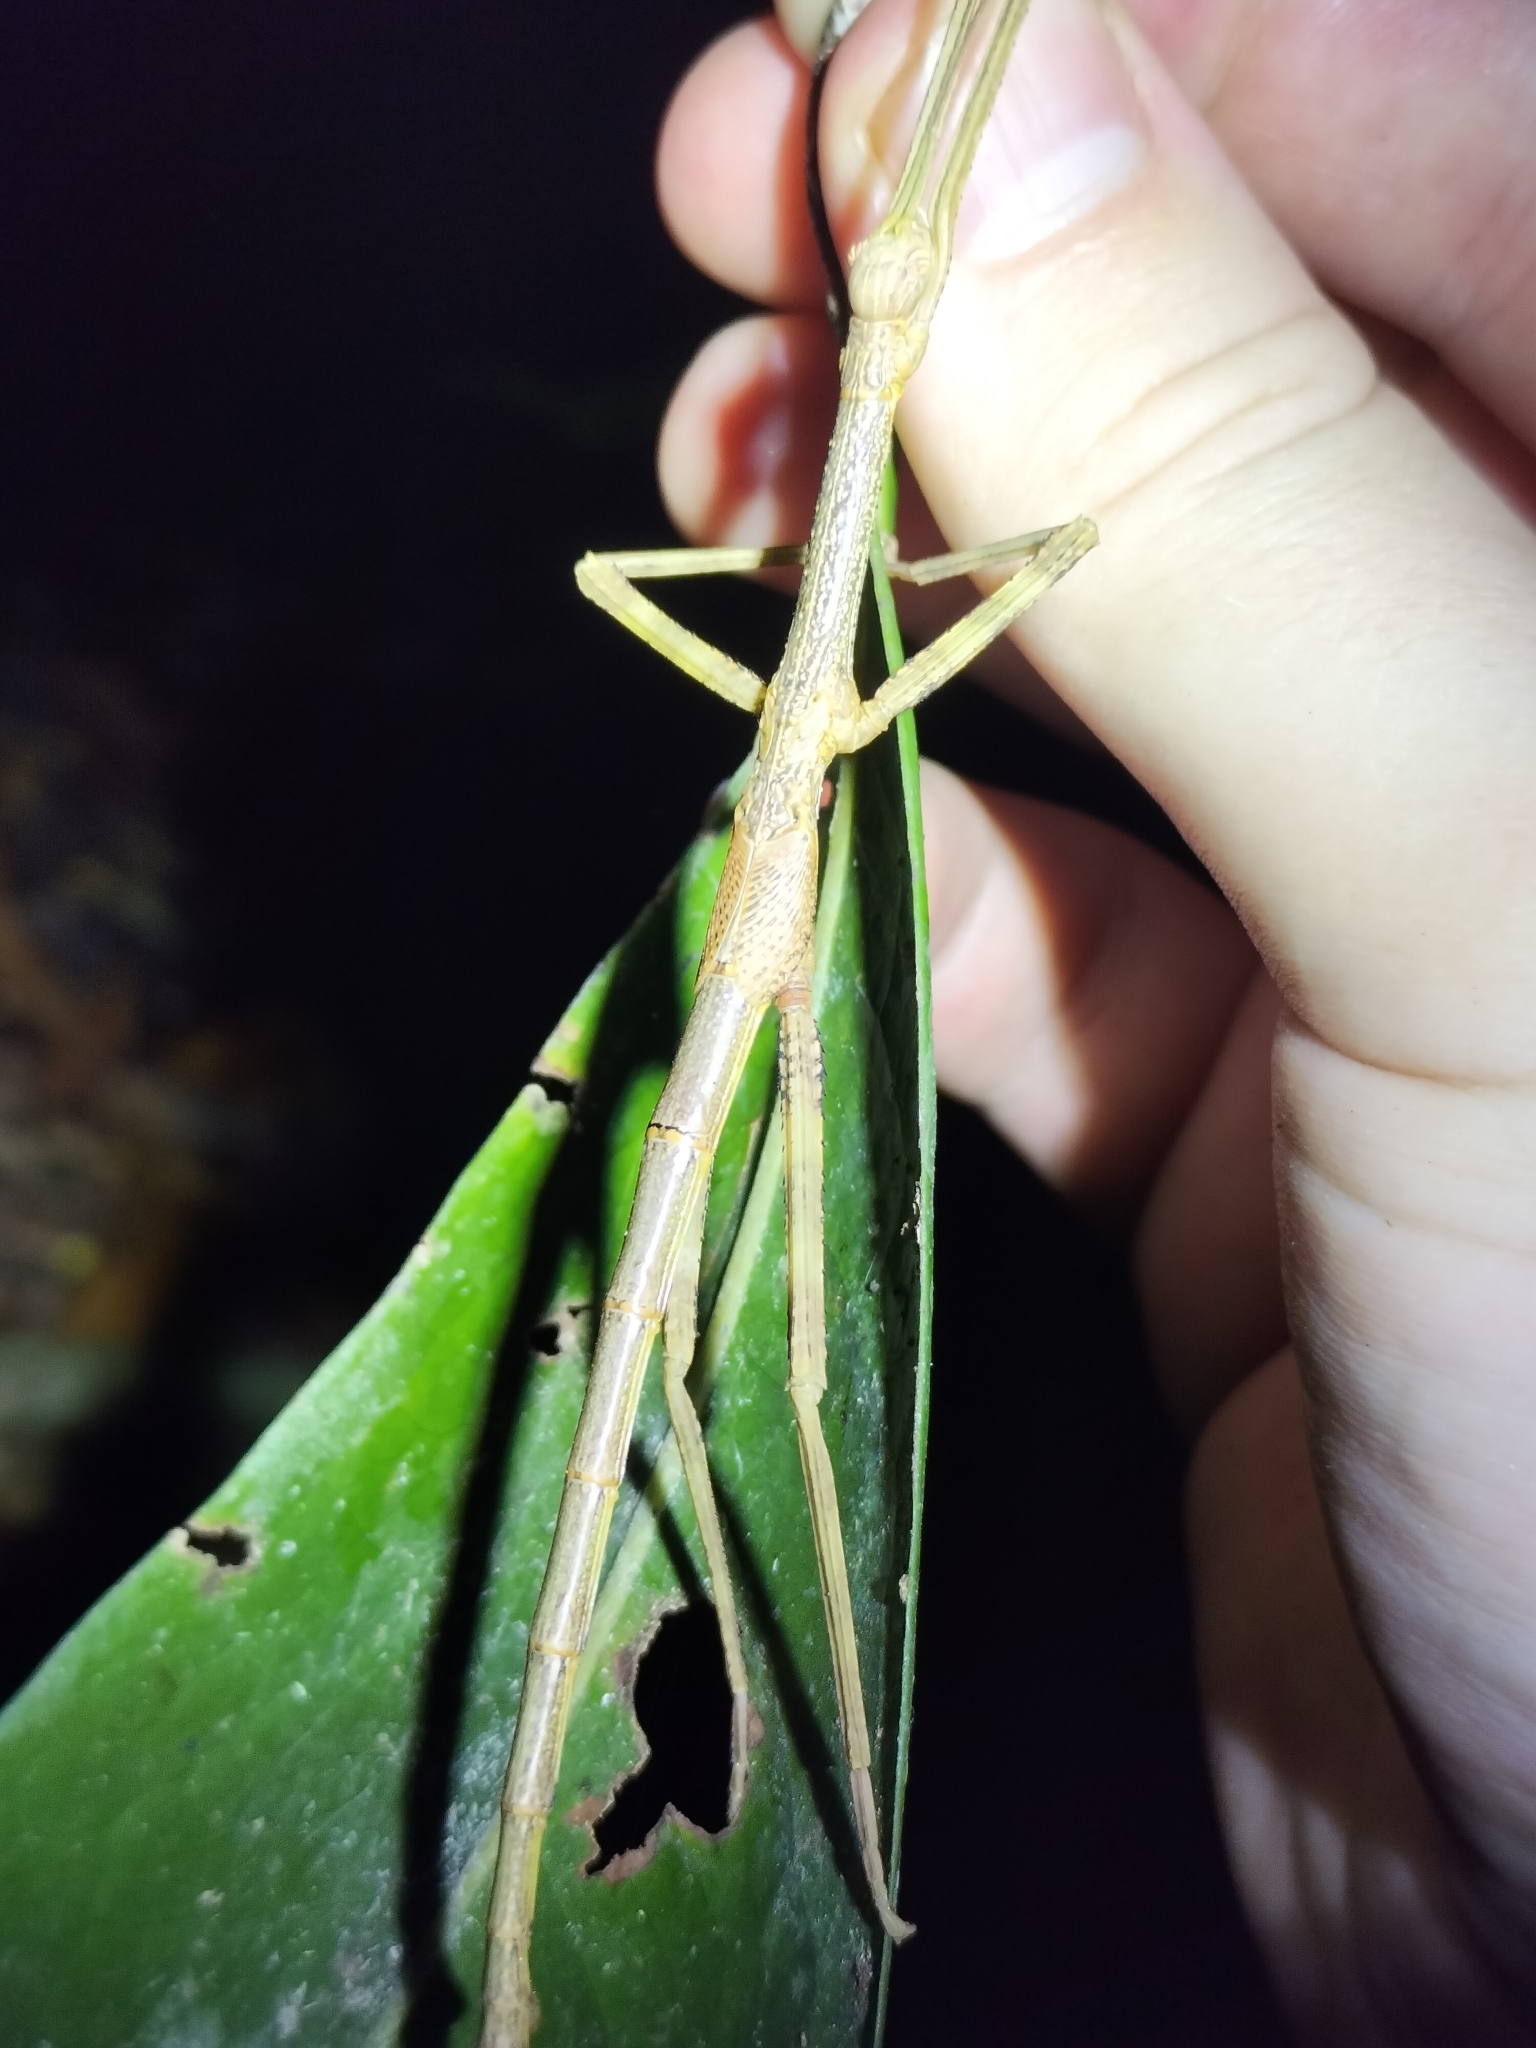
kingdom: Animalia
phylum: Arthropoda
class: Insecta
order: Phasmida
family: Phasmatidae
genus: Anchiale
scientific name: Anchiale briareus
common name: Strong stick insect
